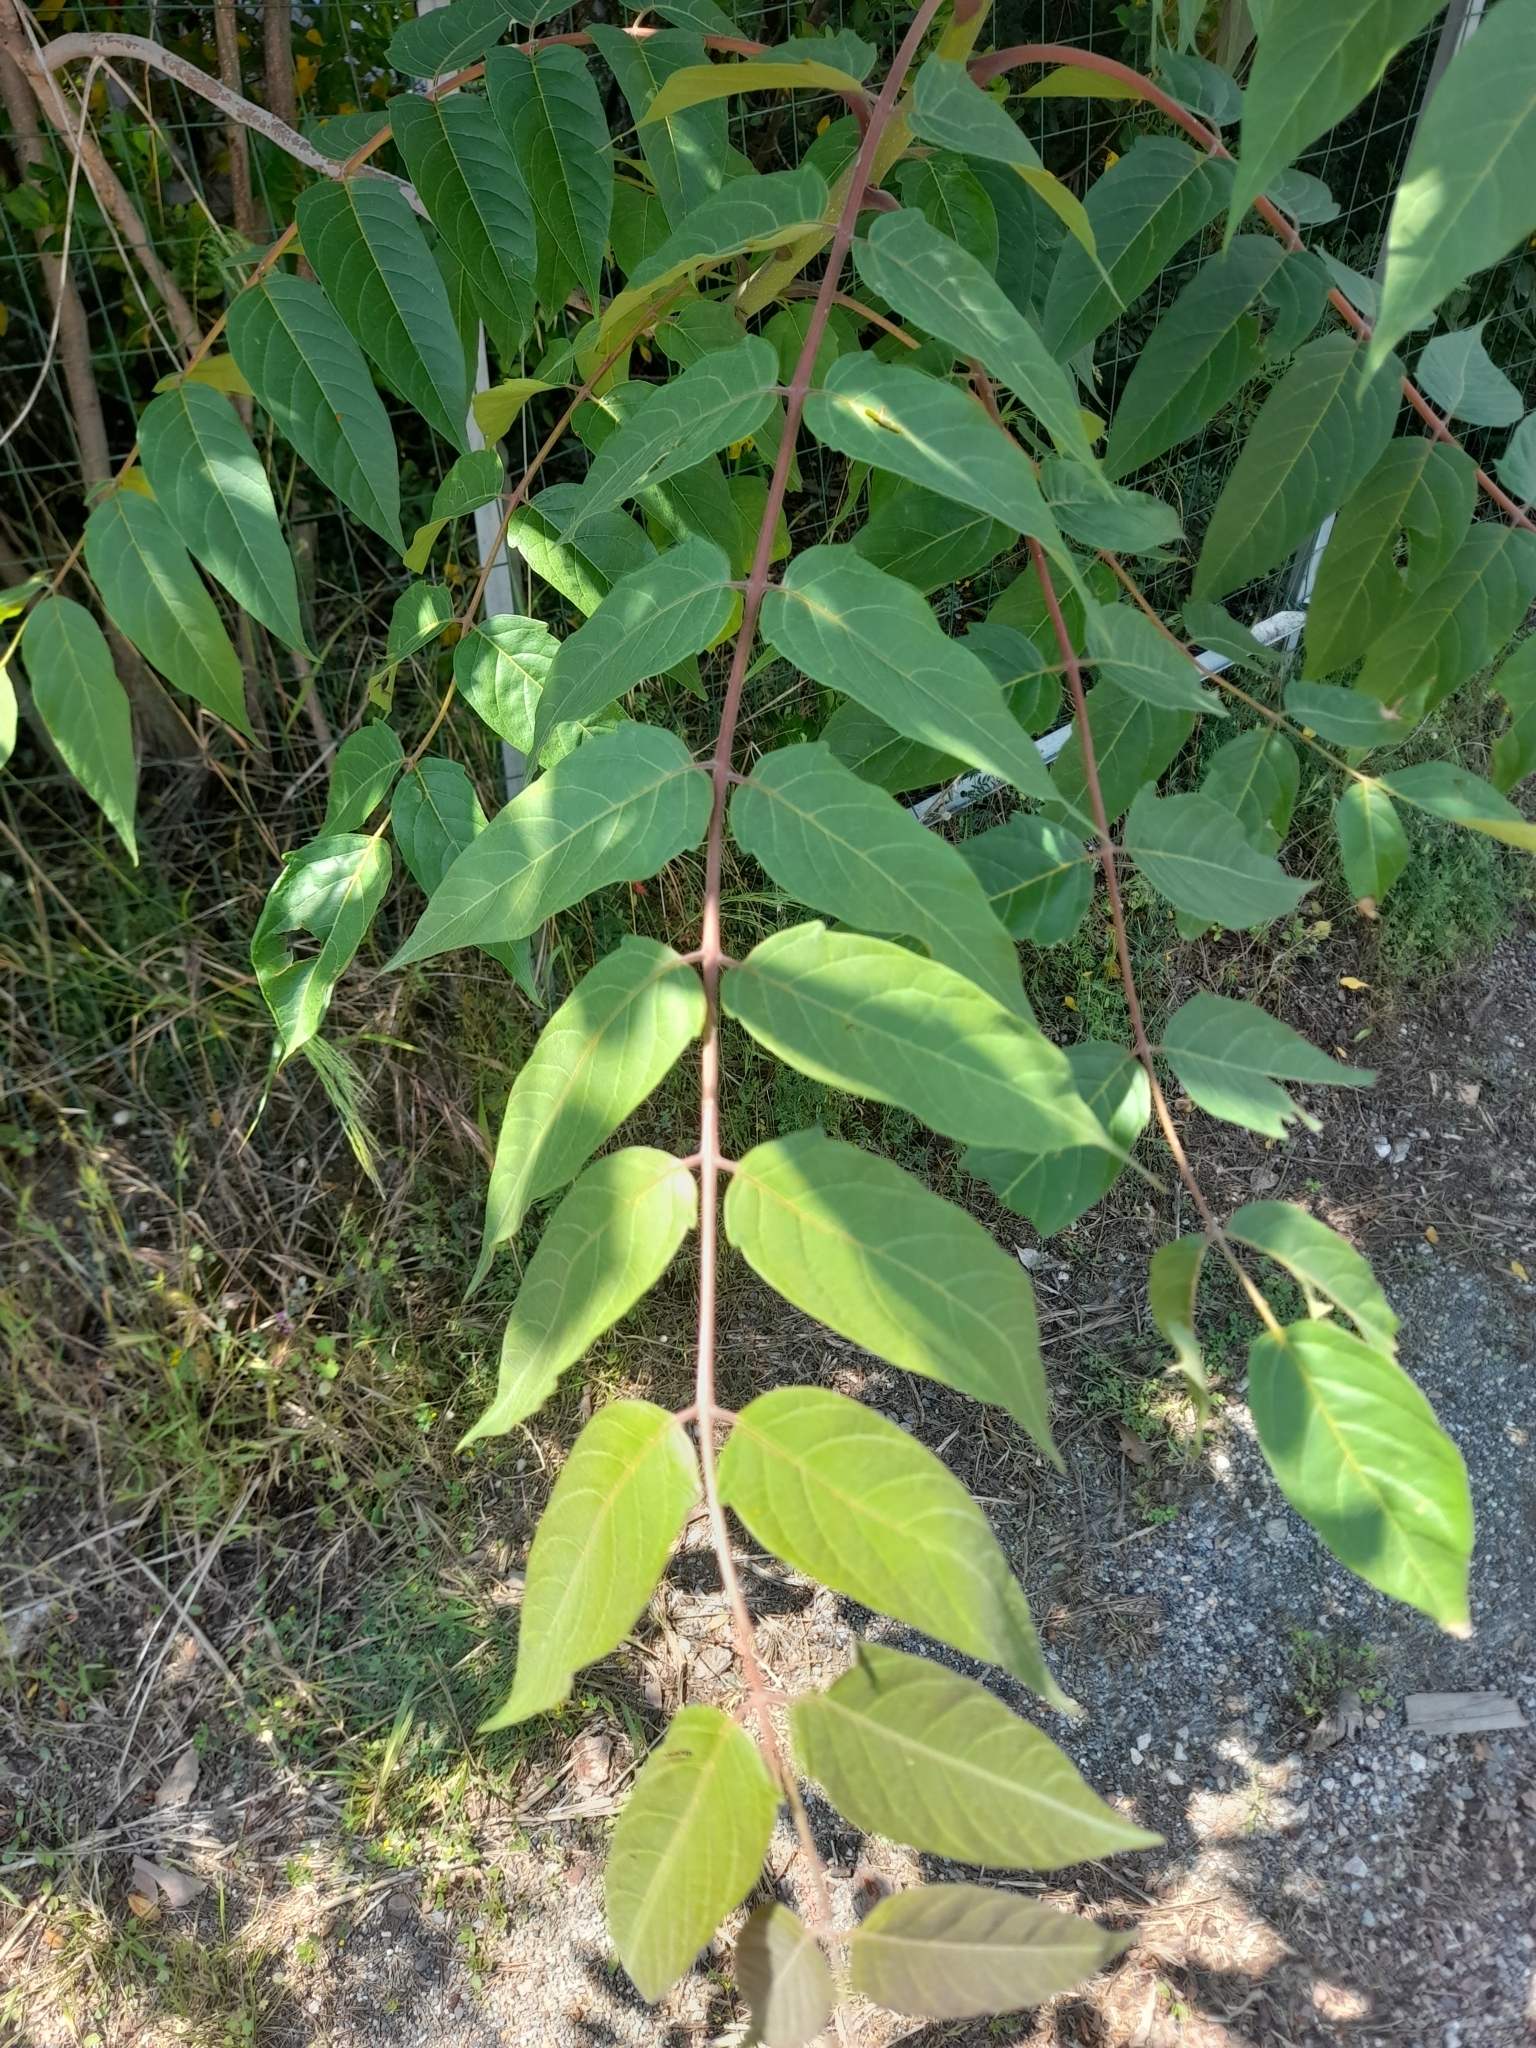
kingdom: Plantae
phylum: Tracheophyta
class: Magnoliopsida
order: Sapindales
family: Simaroubaceae
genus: Ailanthus
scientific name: Ailanthus altissima
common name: Tree-of-heaven
